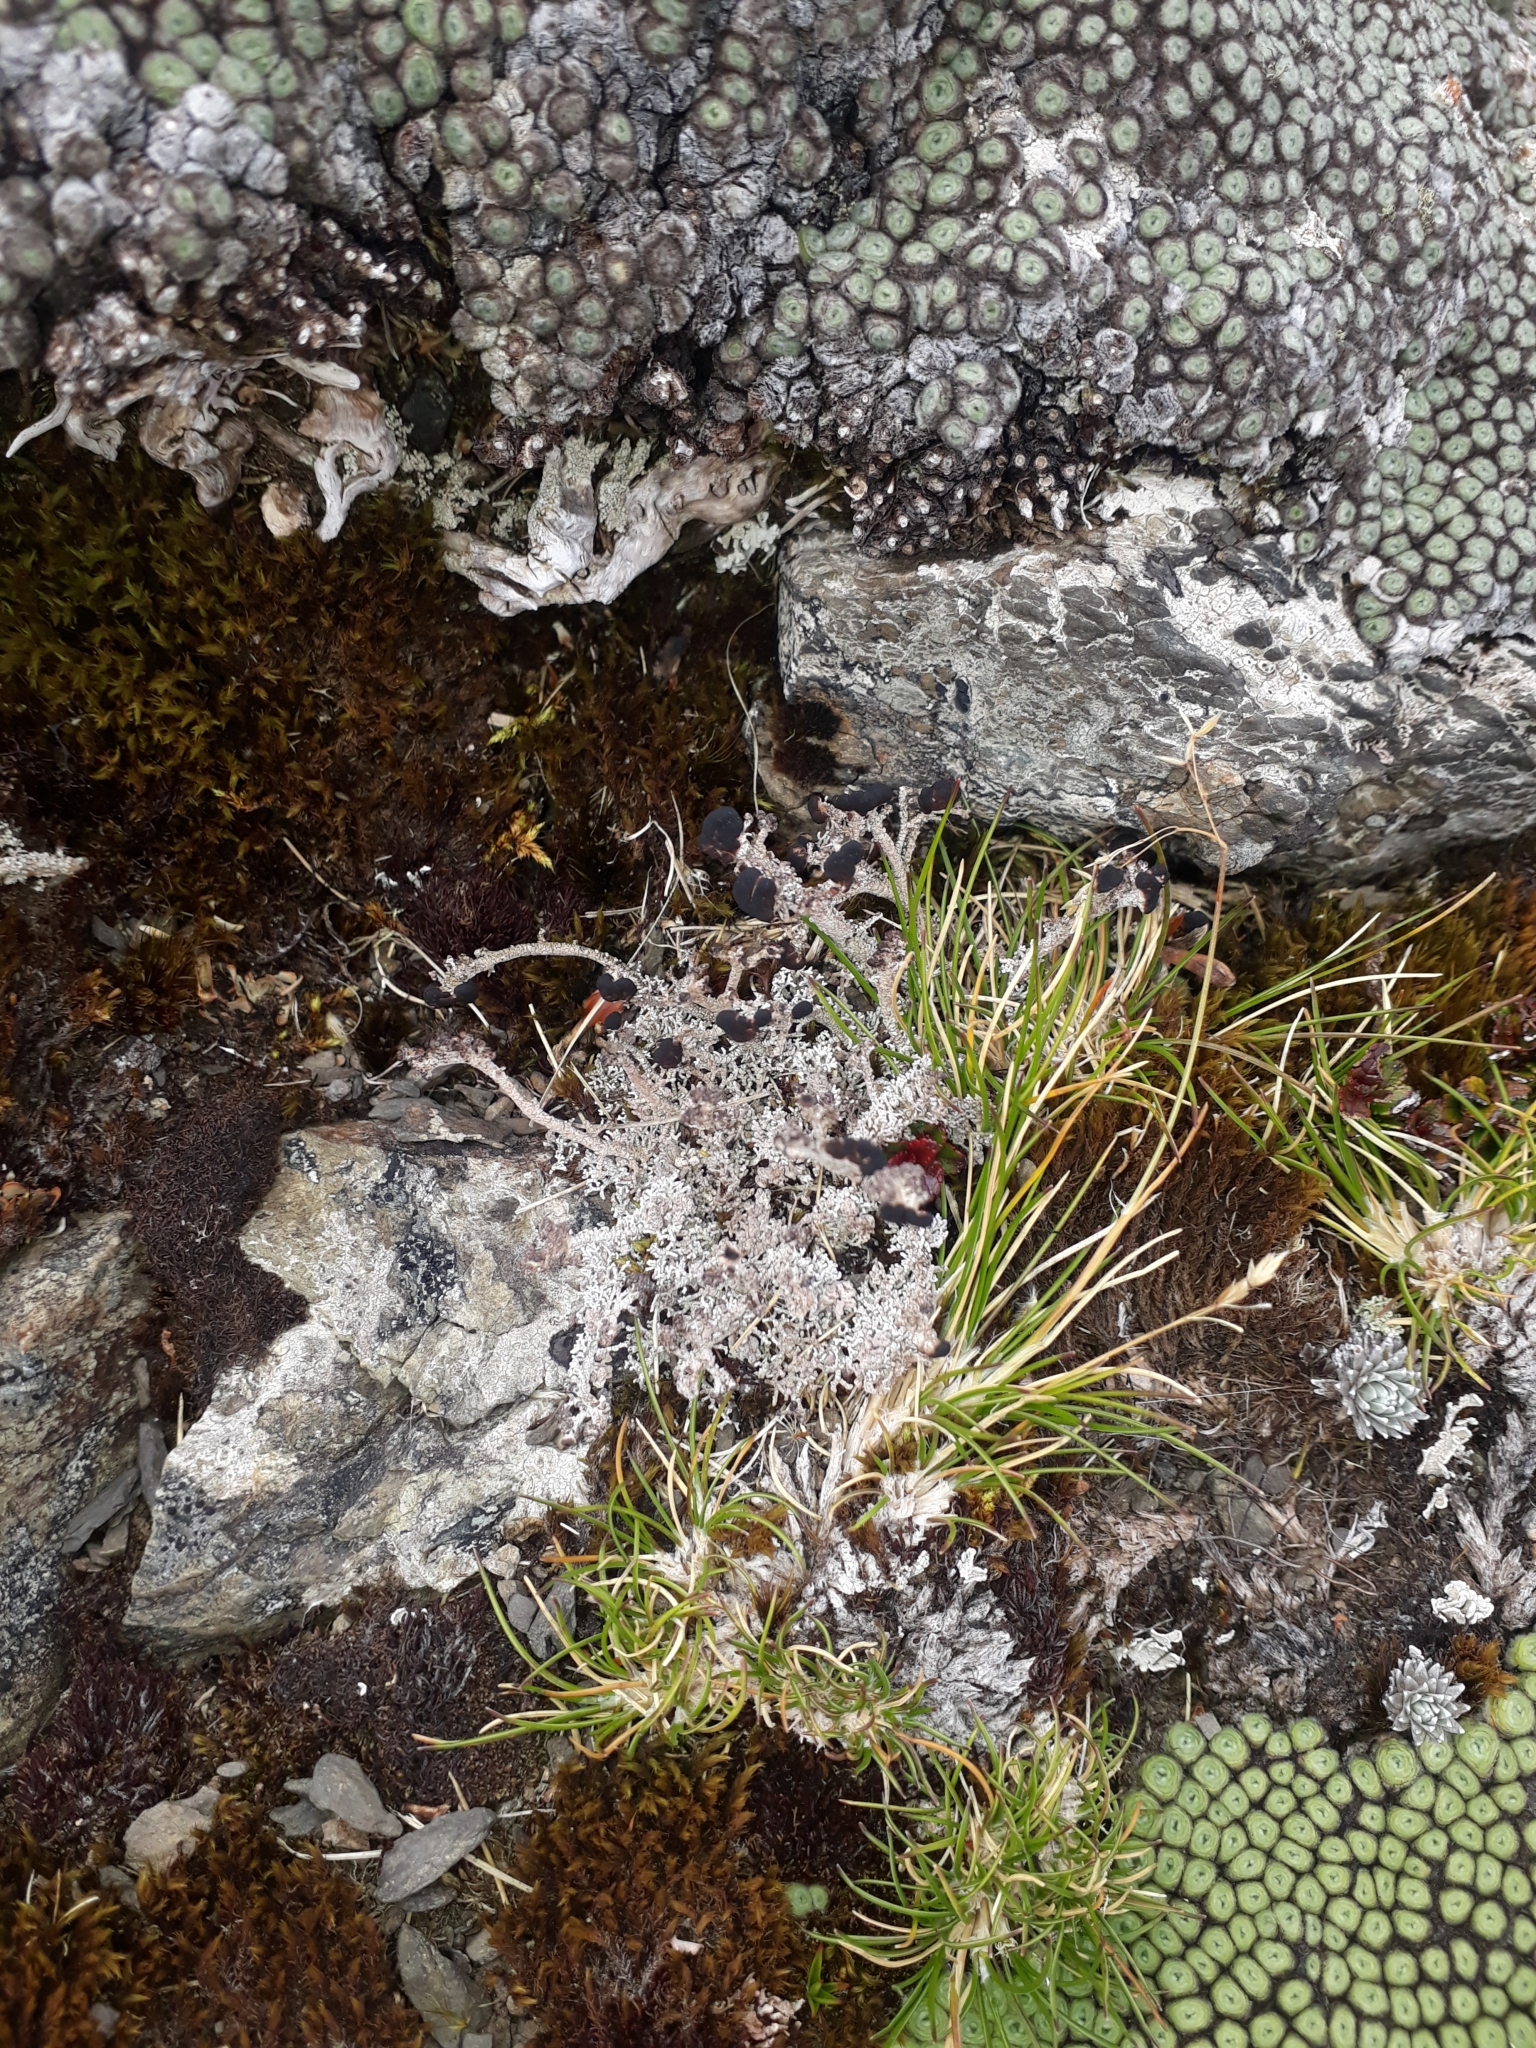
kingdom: Fungi
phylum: Ascomycota
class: Lecanoromycetes
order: Lecanorales
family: Stereocaulaceae
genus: Stereocaulon
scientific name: Stereocaulon
